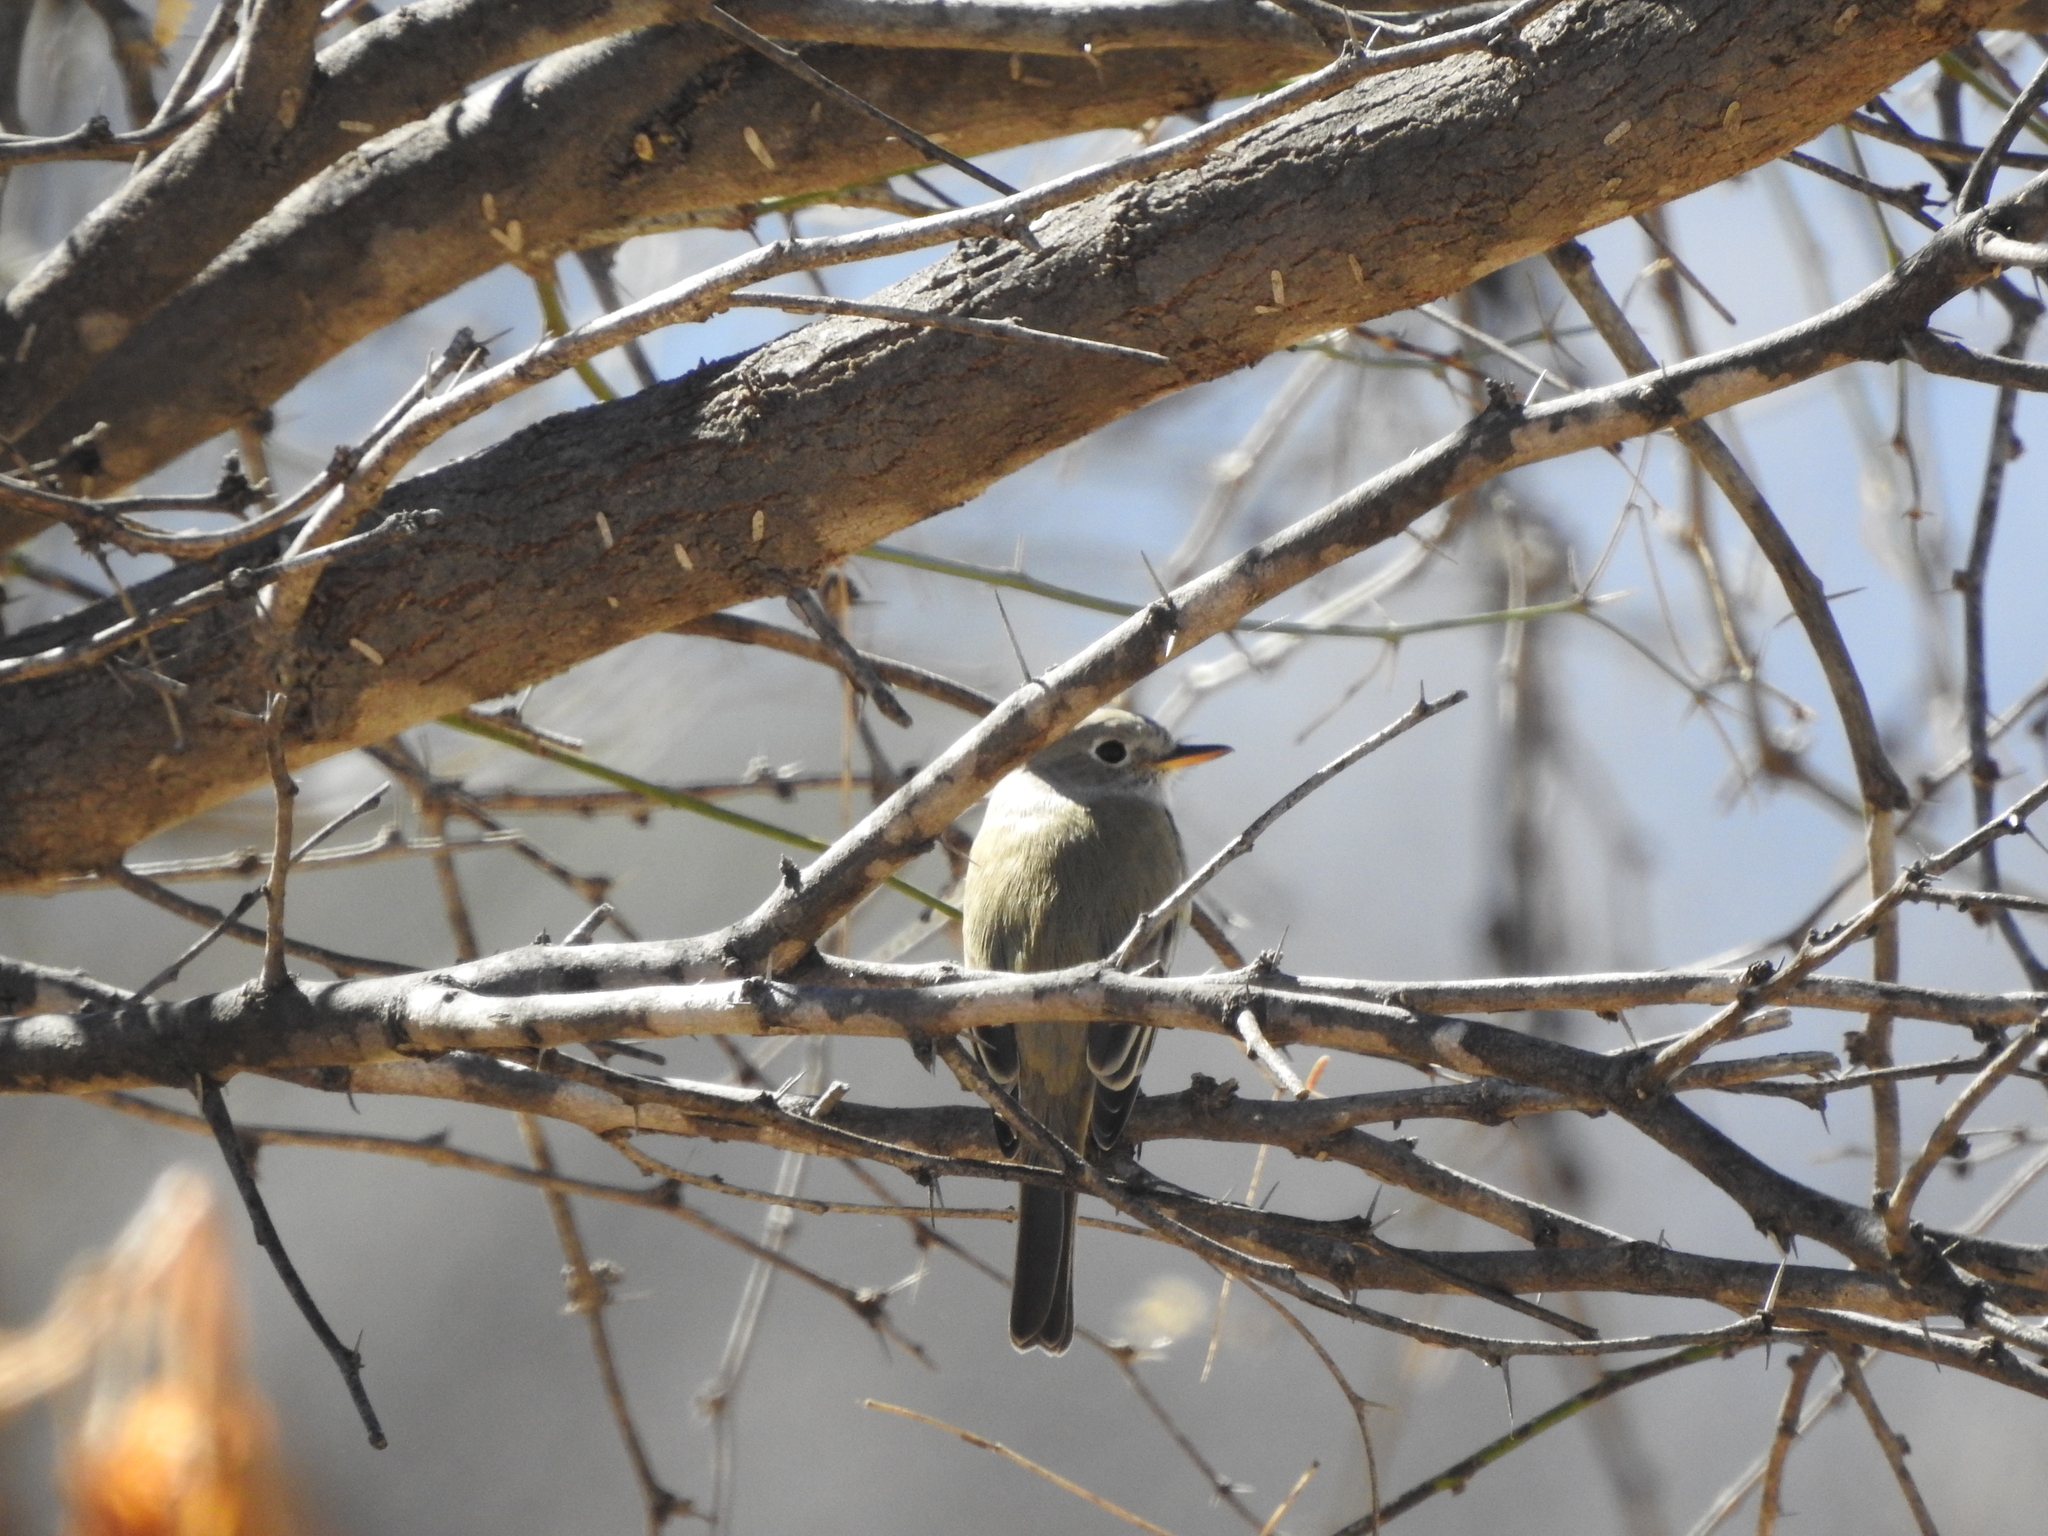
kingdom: Animalia
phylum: Chordata
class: Aves
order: Passeriformes
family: Tyrannidae
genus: Empidonax
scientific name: Empidonax wrightii
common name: Gray flycatcher
